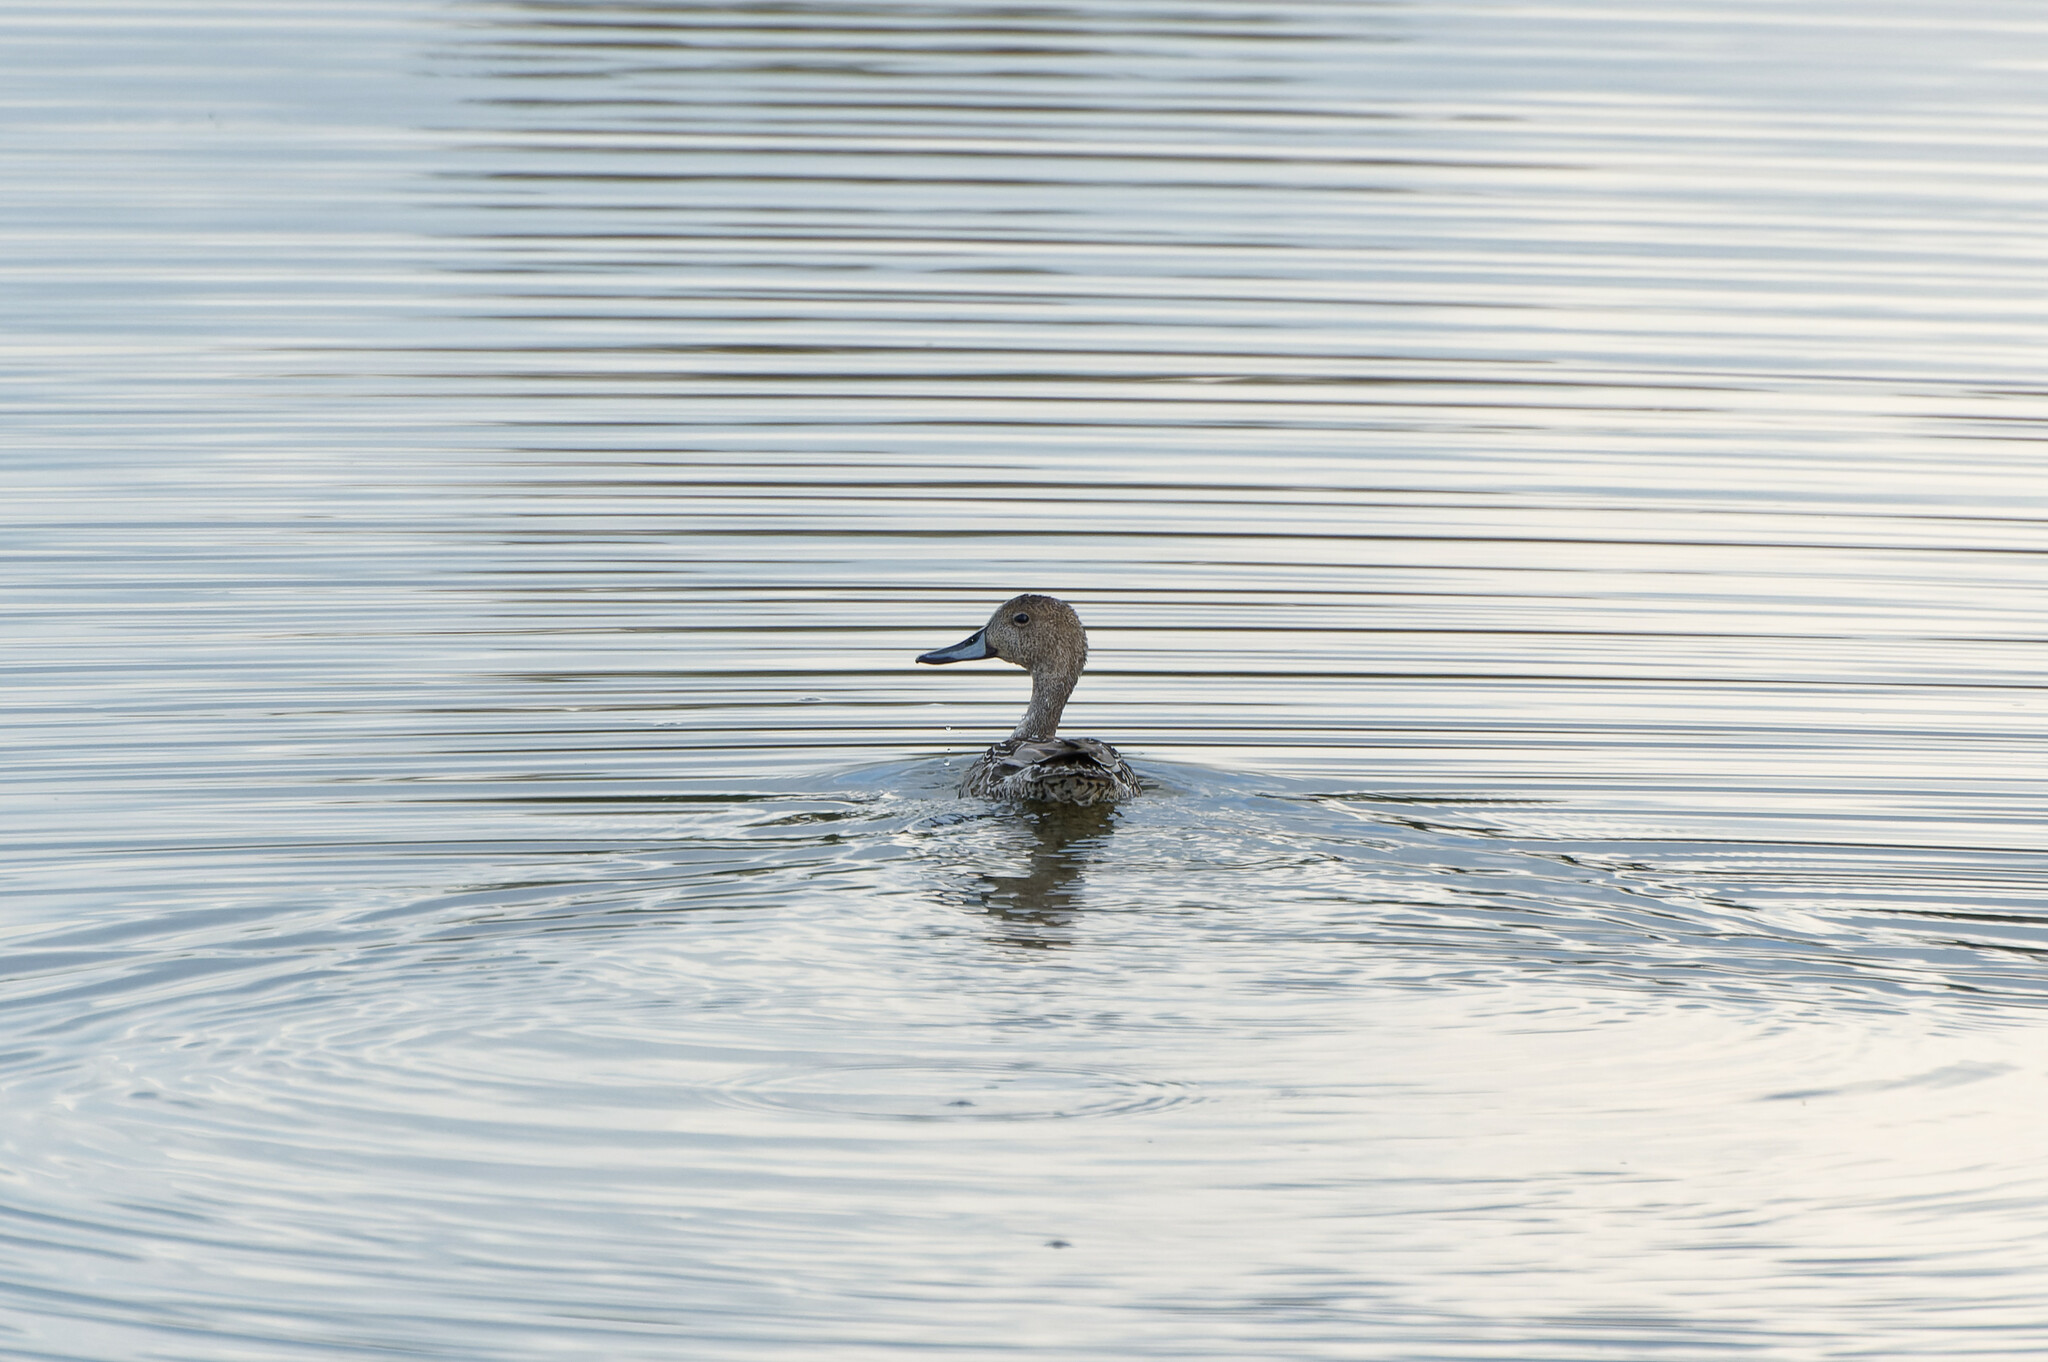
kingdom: Animalia
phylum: Chordata
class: Aves
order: Anseriformes
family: Anatidae
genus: Anas
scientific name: Anas acuta
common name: Northern pintail
